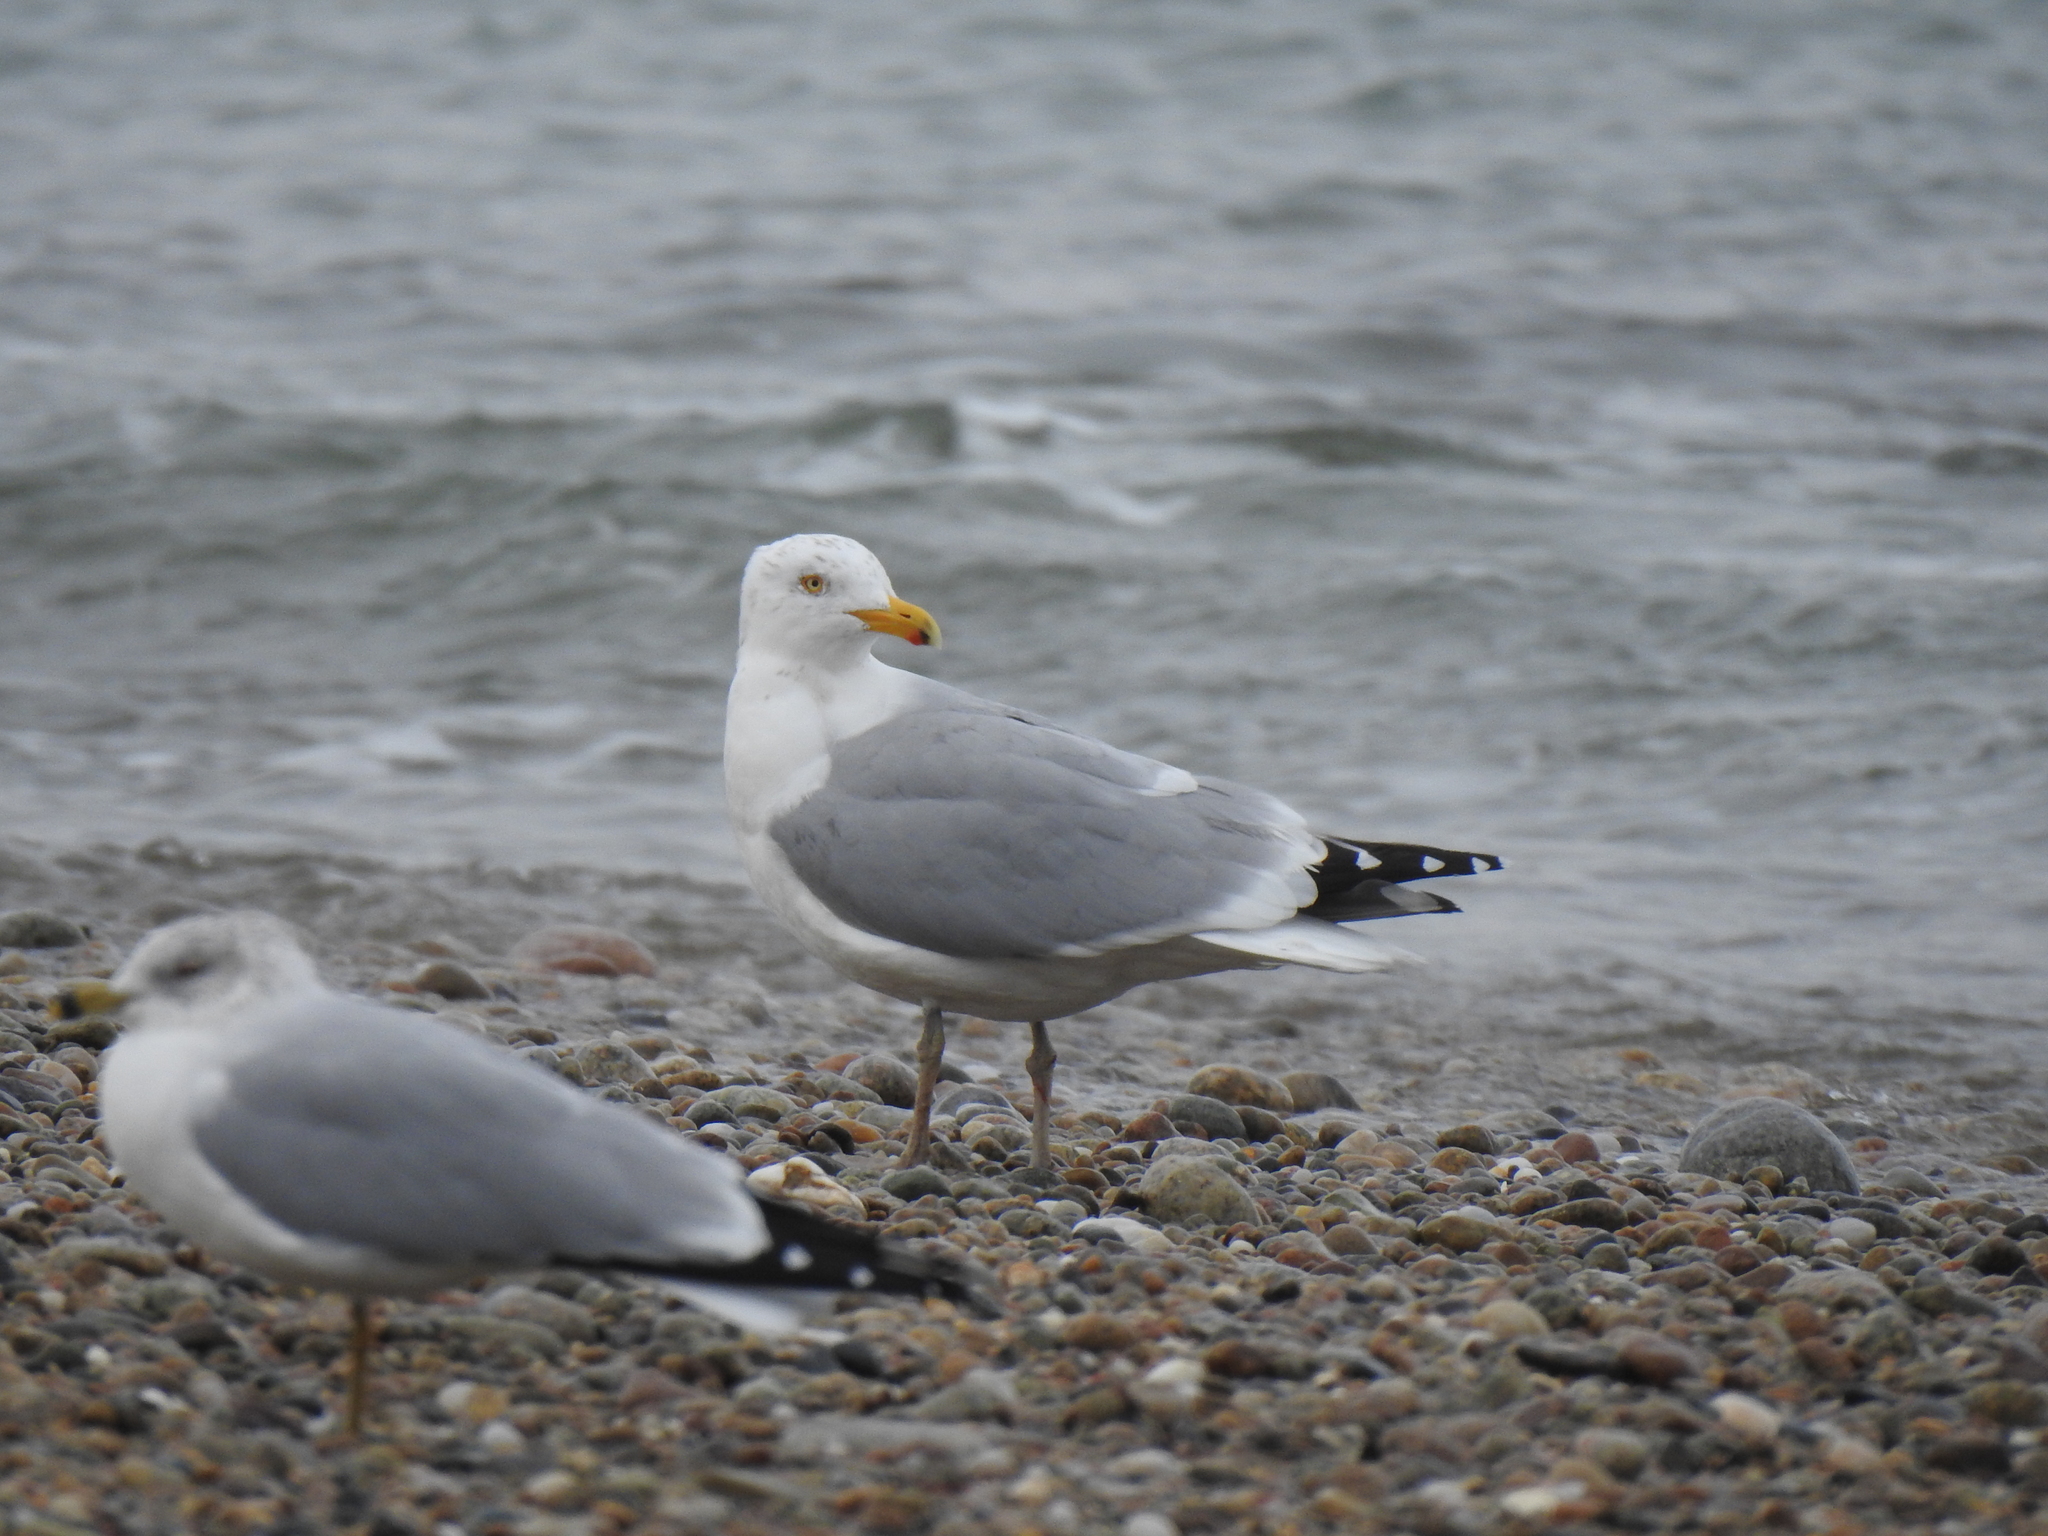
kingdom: Animalia
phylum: Chordata
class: Aves
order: Charadriiformes
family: Laridae
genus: Larus
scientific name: Larus argentatus
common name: Herring gull
